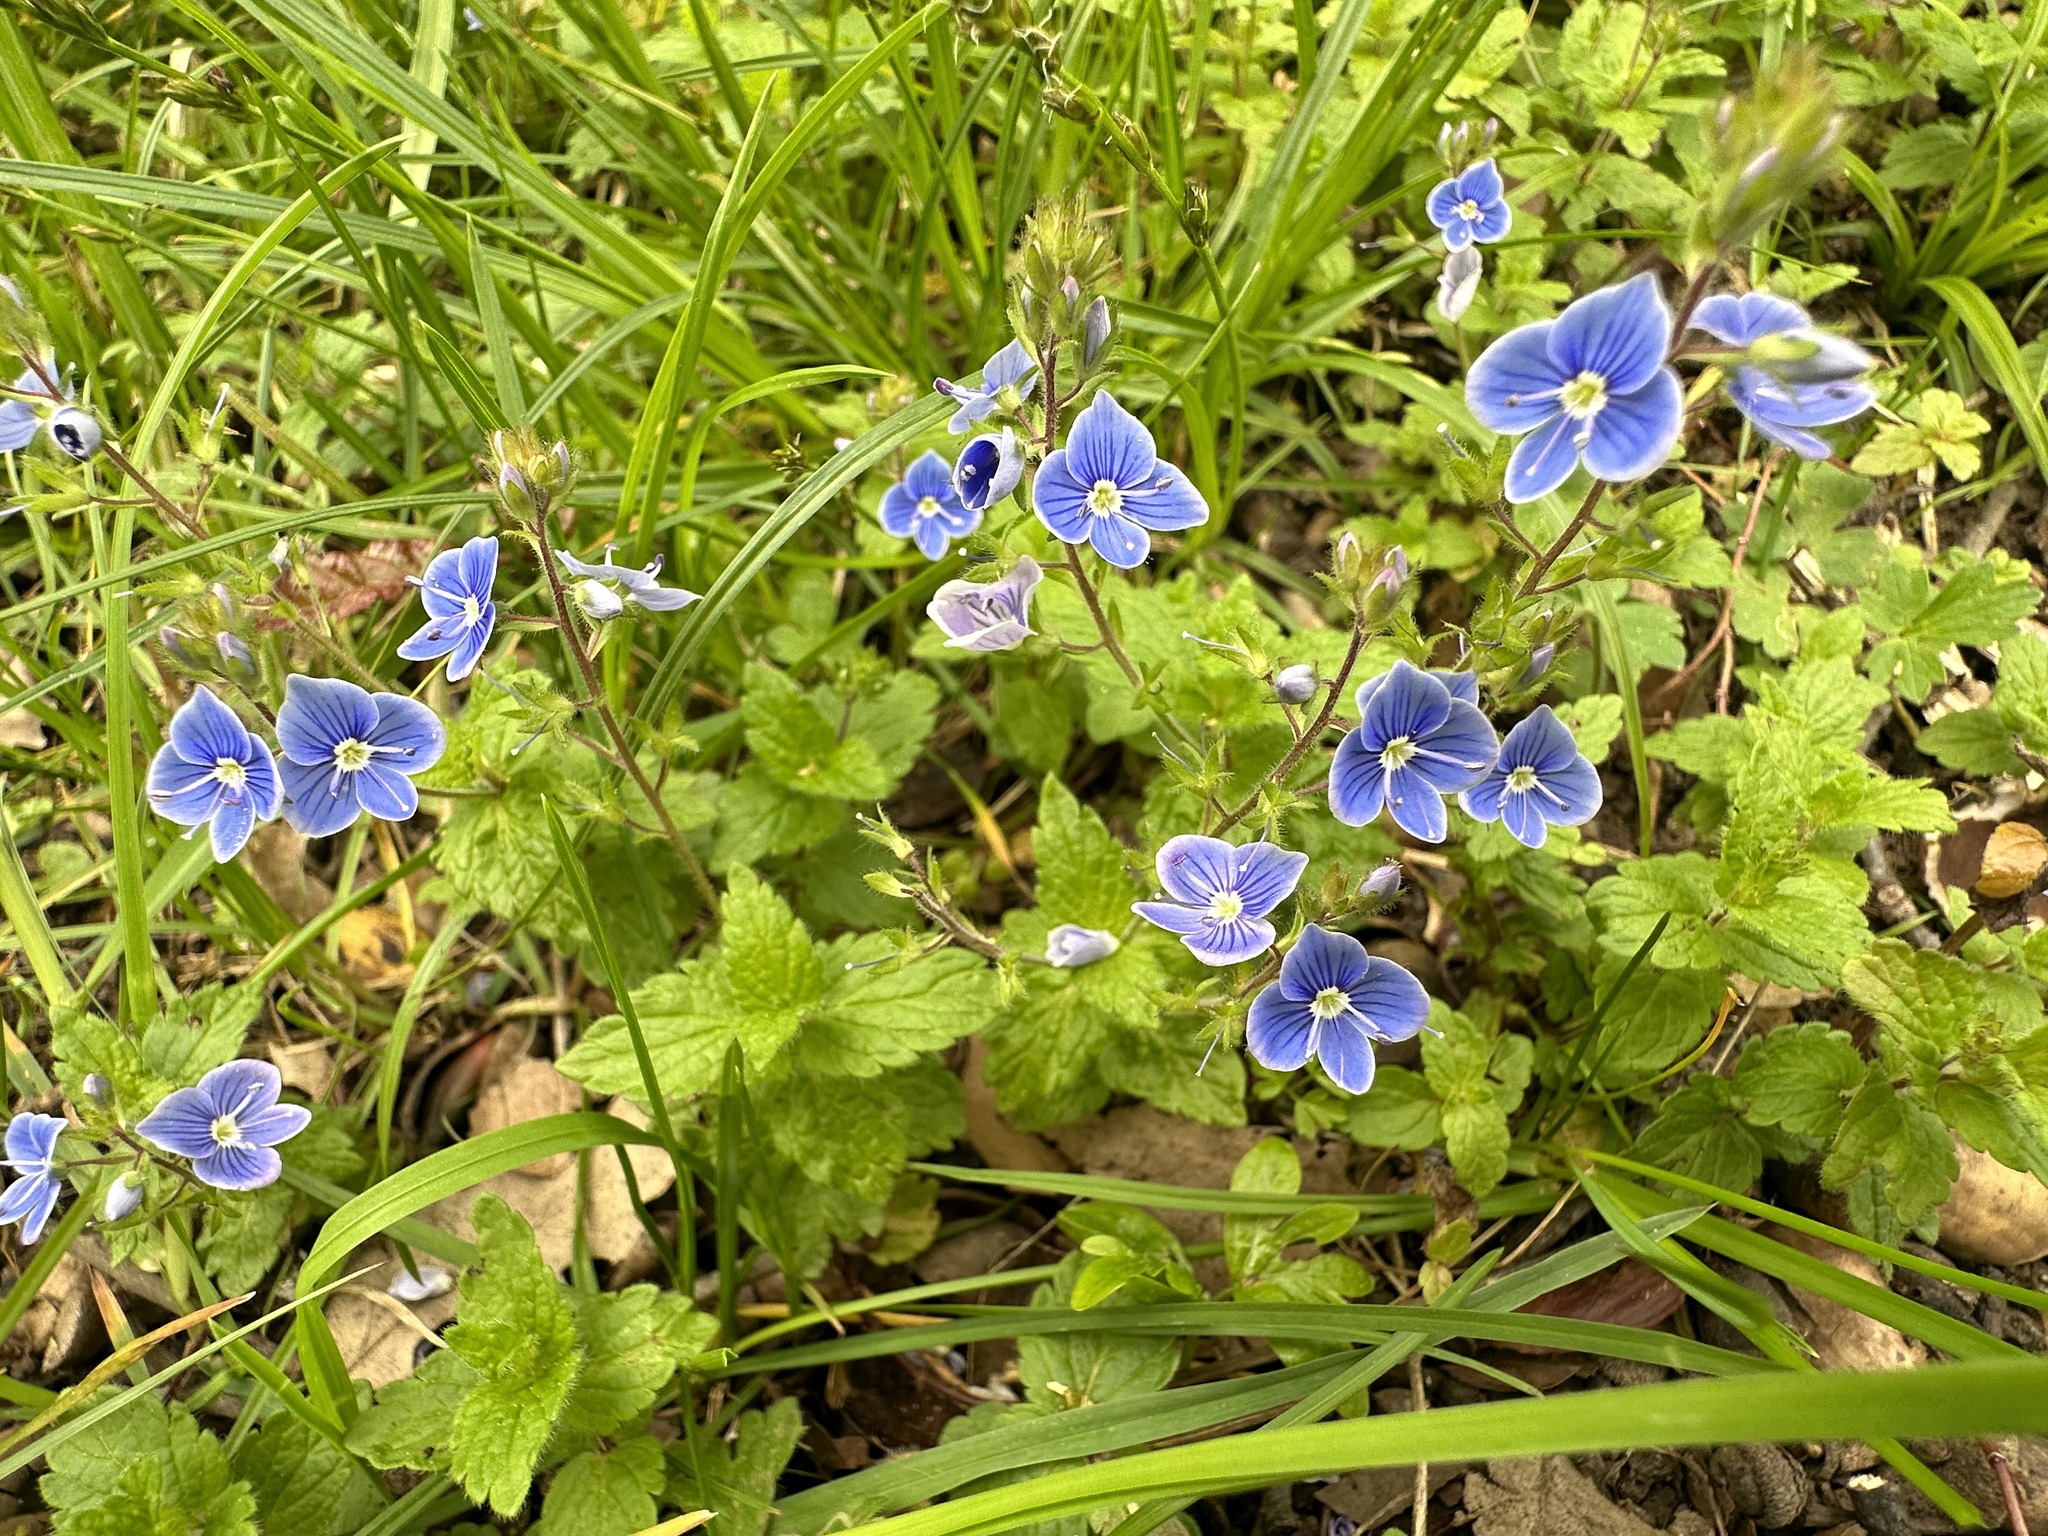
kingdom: Plantae
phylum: Tracheophyta
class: Magnoliopsida
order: Lamiales
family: Plantaginaceae
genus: Veronica
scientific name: Veronica chamaedrys
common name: Germander speedwell
